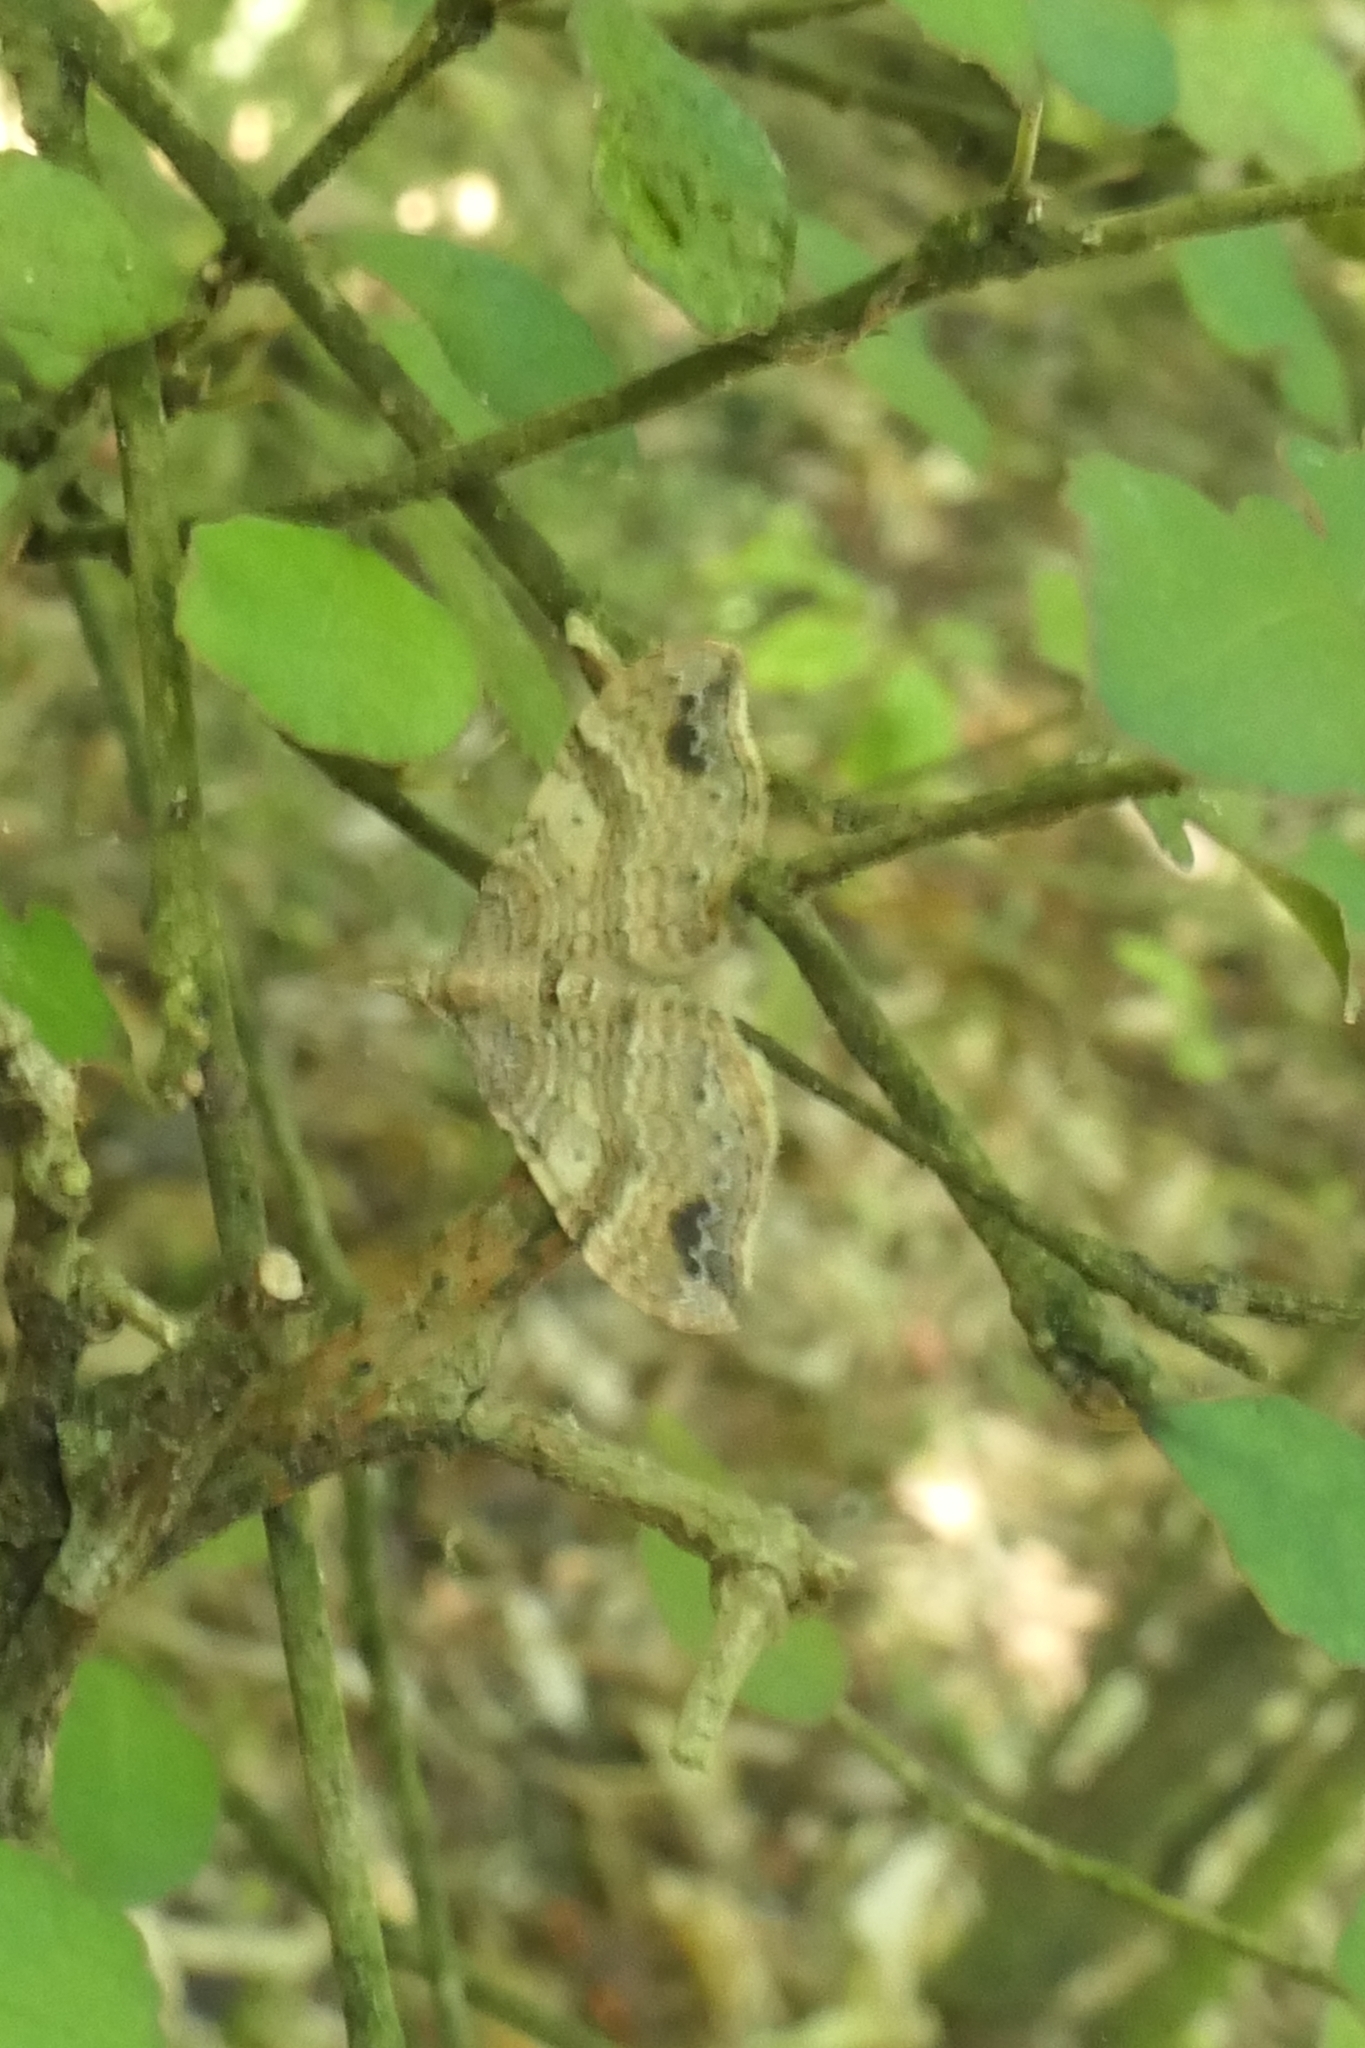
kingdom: Animalia
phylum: Arthropoda
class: Insecta
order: Lepidoptera
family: Geometridae
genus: Homodotis
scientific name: Homodotis megaspilata
